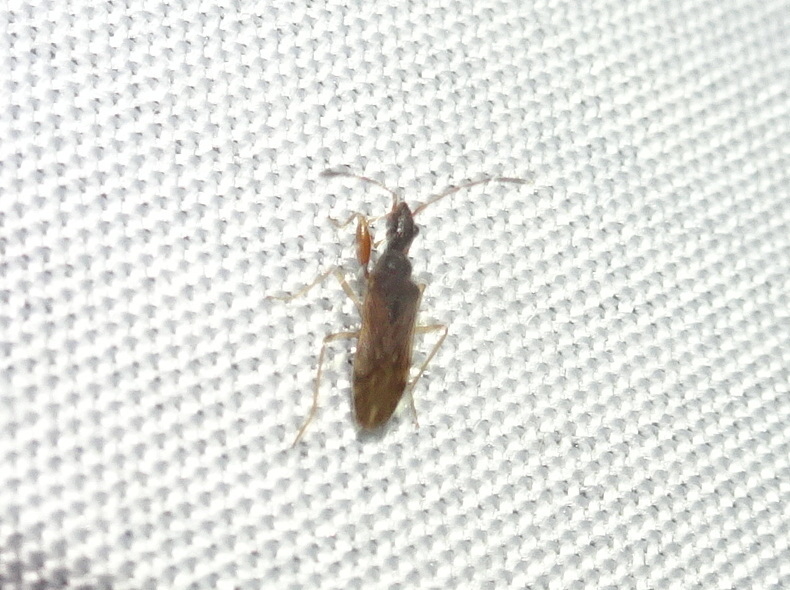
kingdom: Animalia
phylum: Arthropoda
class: Insecta
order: Hemiptera
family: Rhyparochromidae
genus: Heraeus
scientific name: Heraeus plebejus
